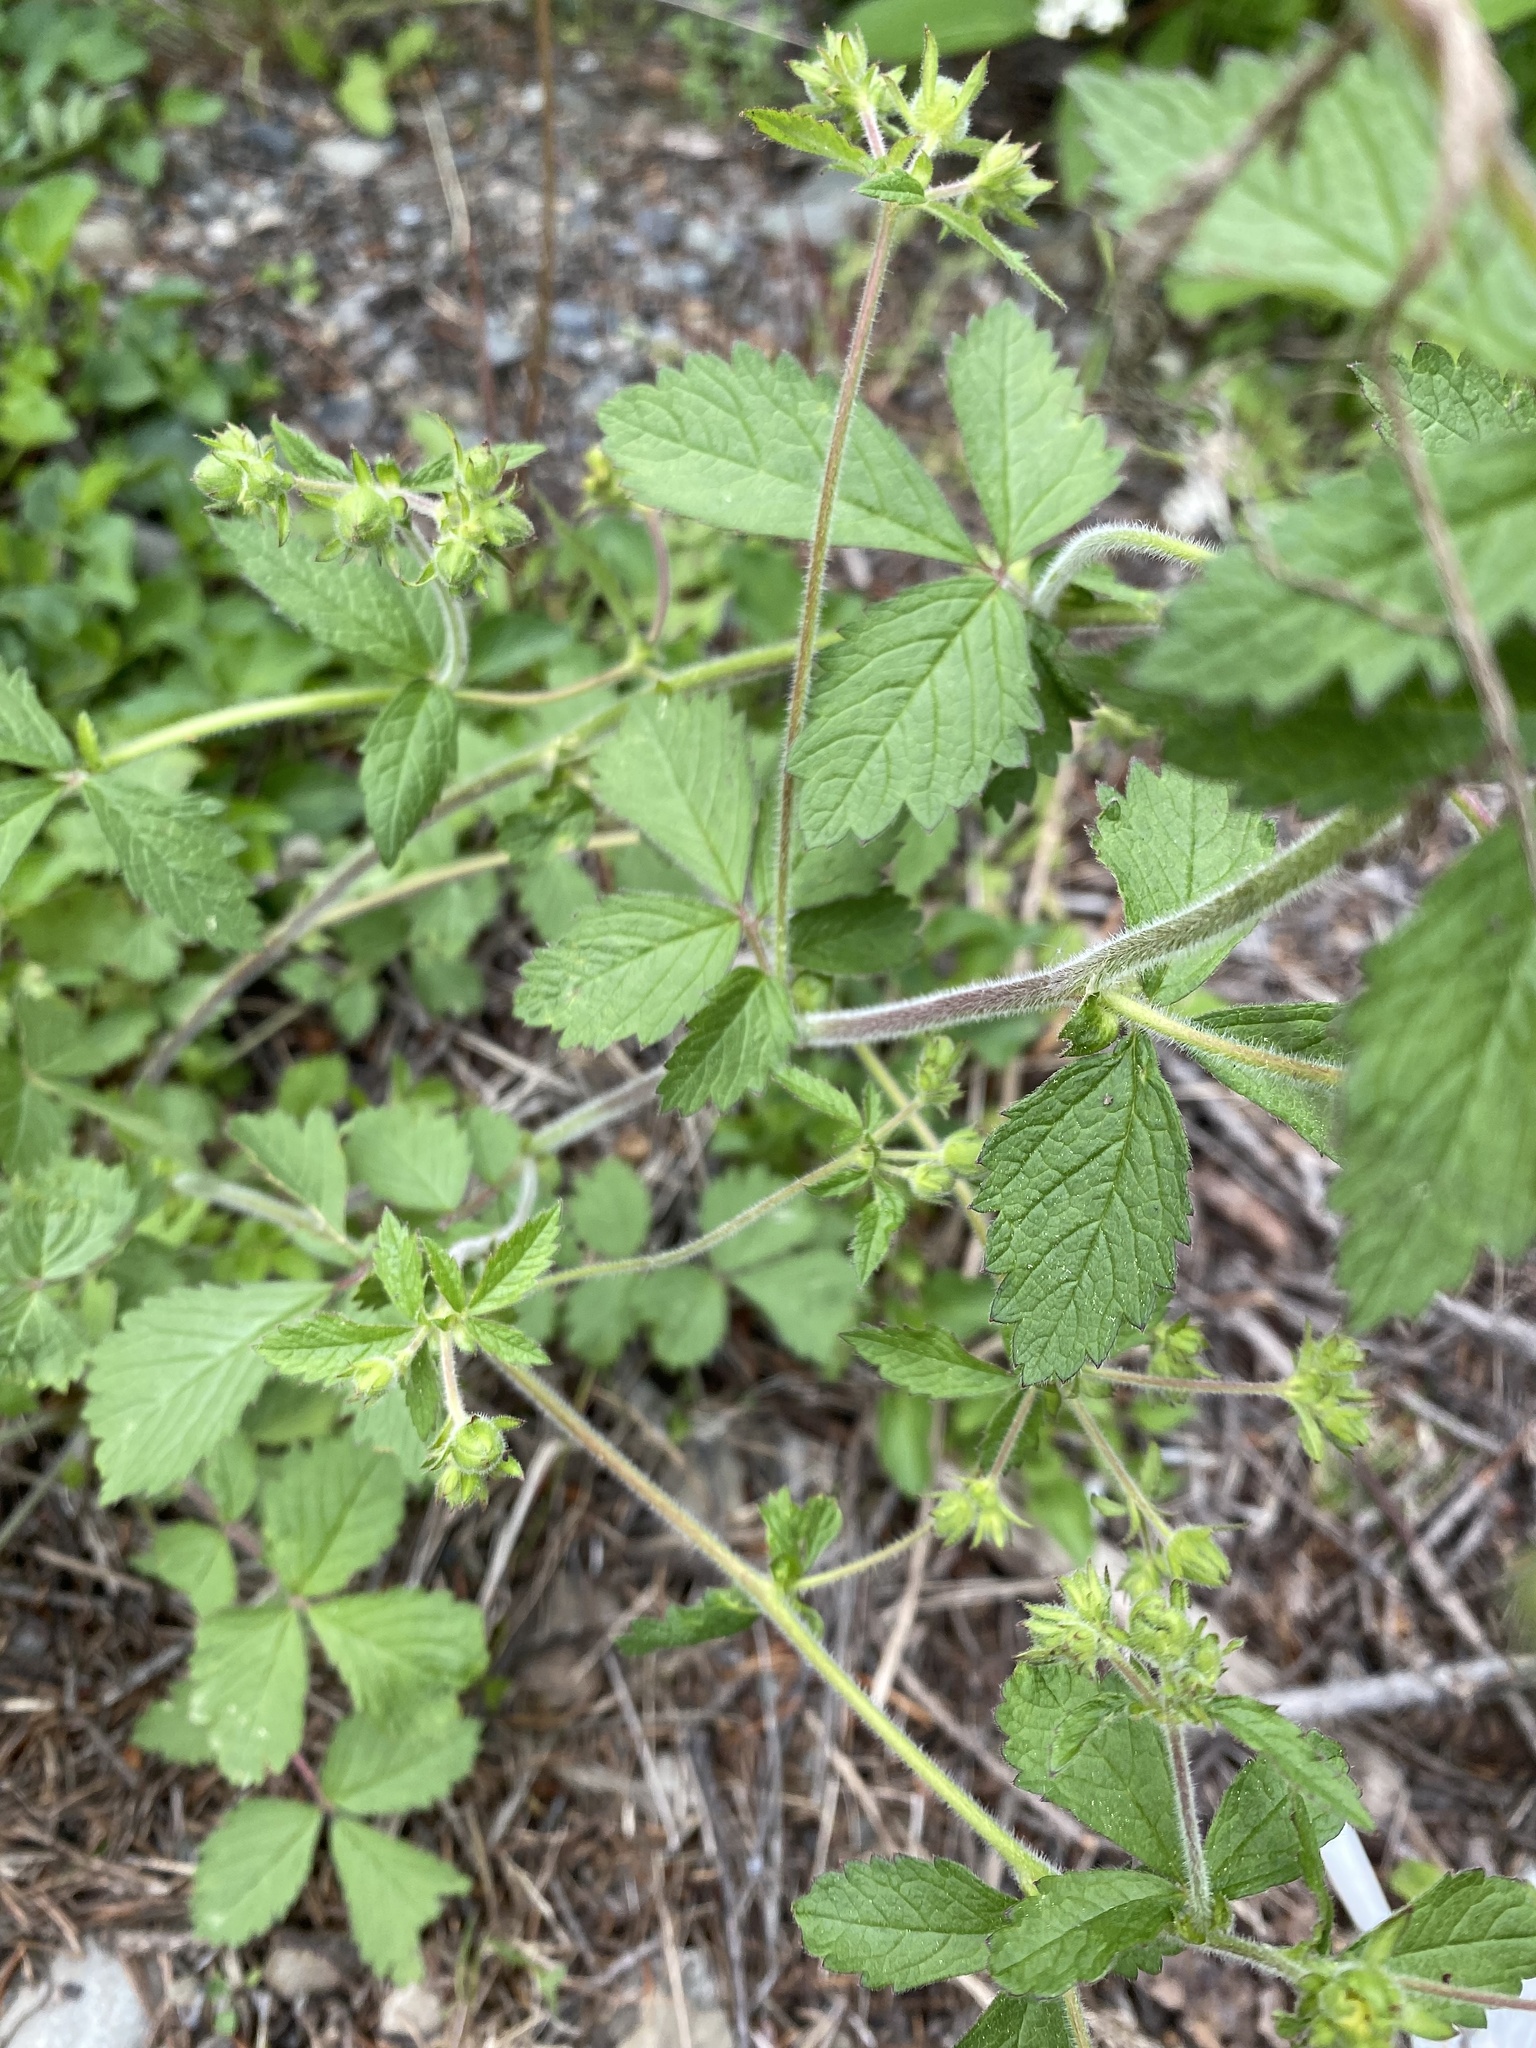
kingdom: Plantae
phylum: Tracheophyta
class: Magnoliopsida
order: Rosales
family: Rosaceae
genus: Drymocallis
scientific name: Drymocallis glandulosa
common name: Sticky cinquefoil
